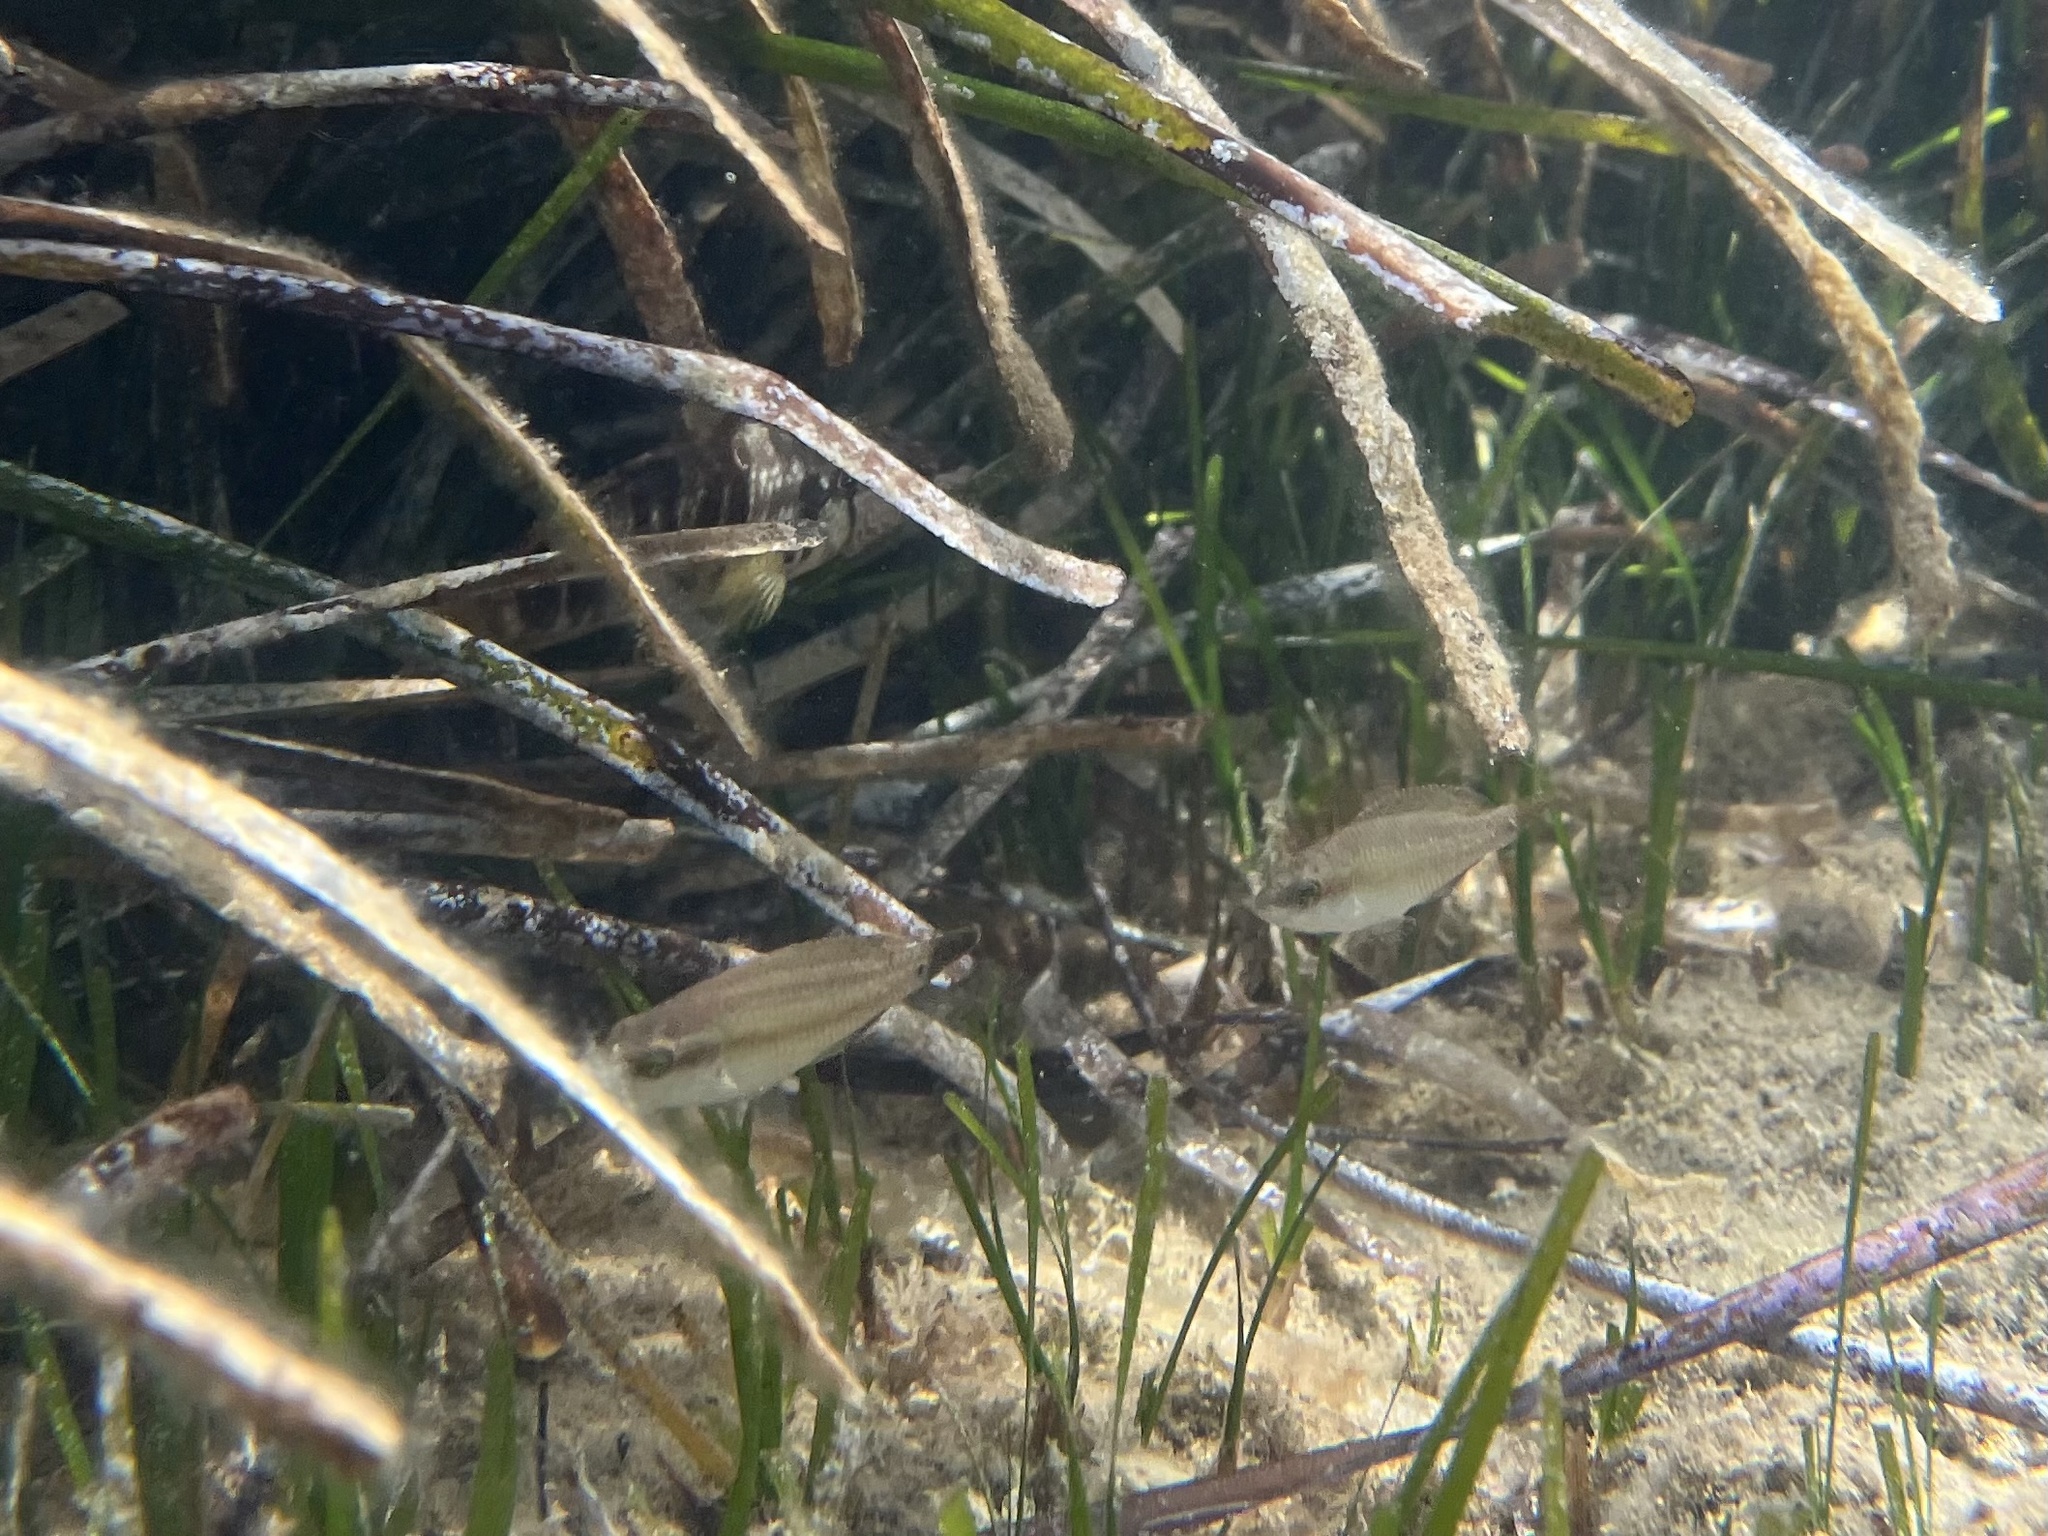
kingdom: Animalia
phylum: Chordata
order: Perciformes
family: Labridae
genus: Symphodus
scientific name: Symphodus tinca
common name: Peacock wrasse
